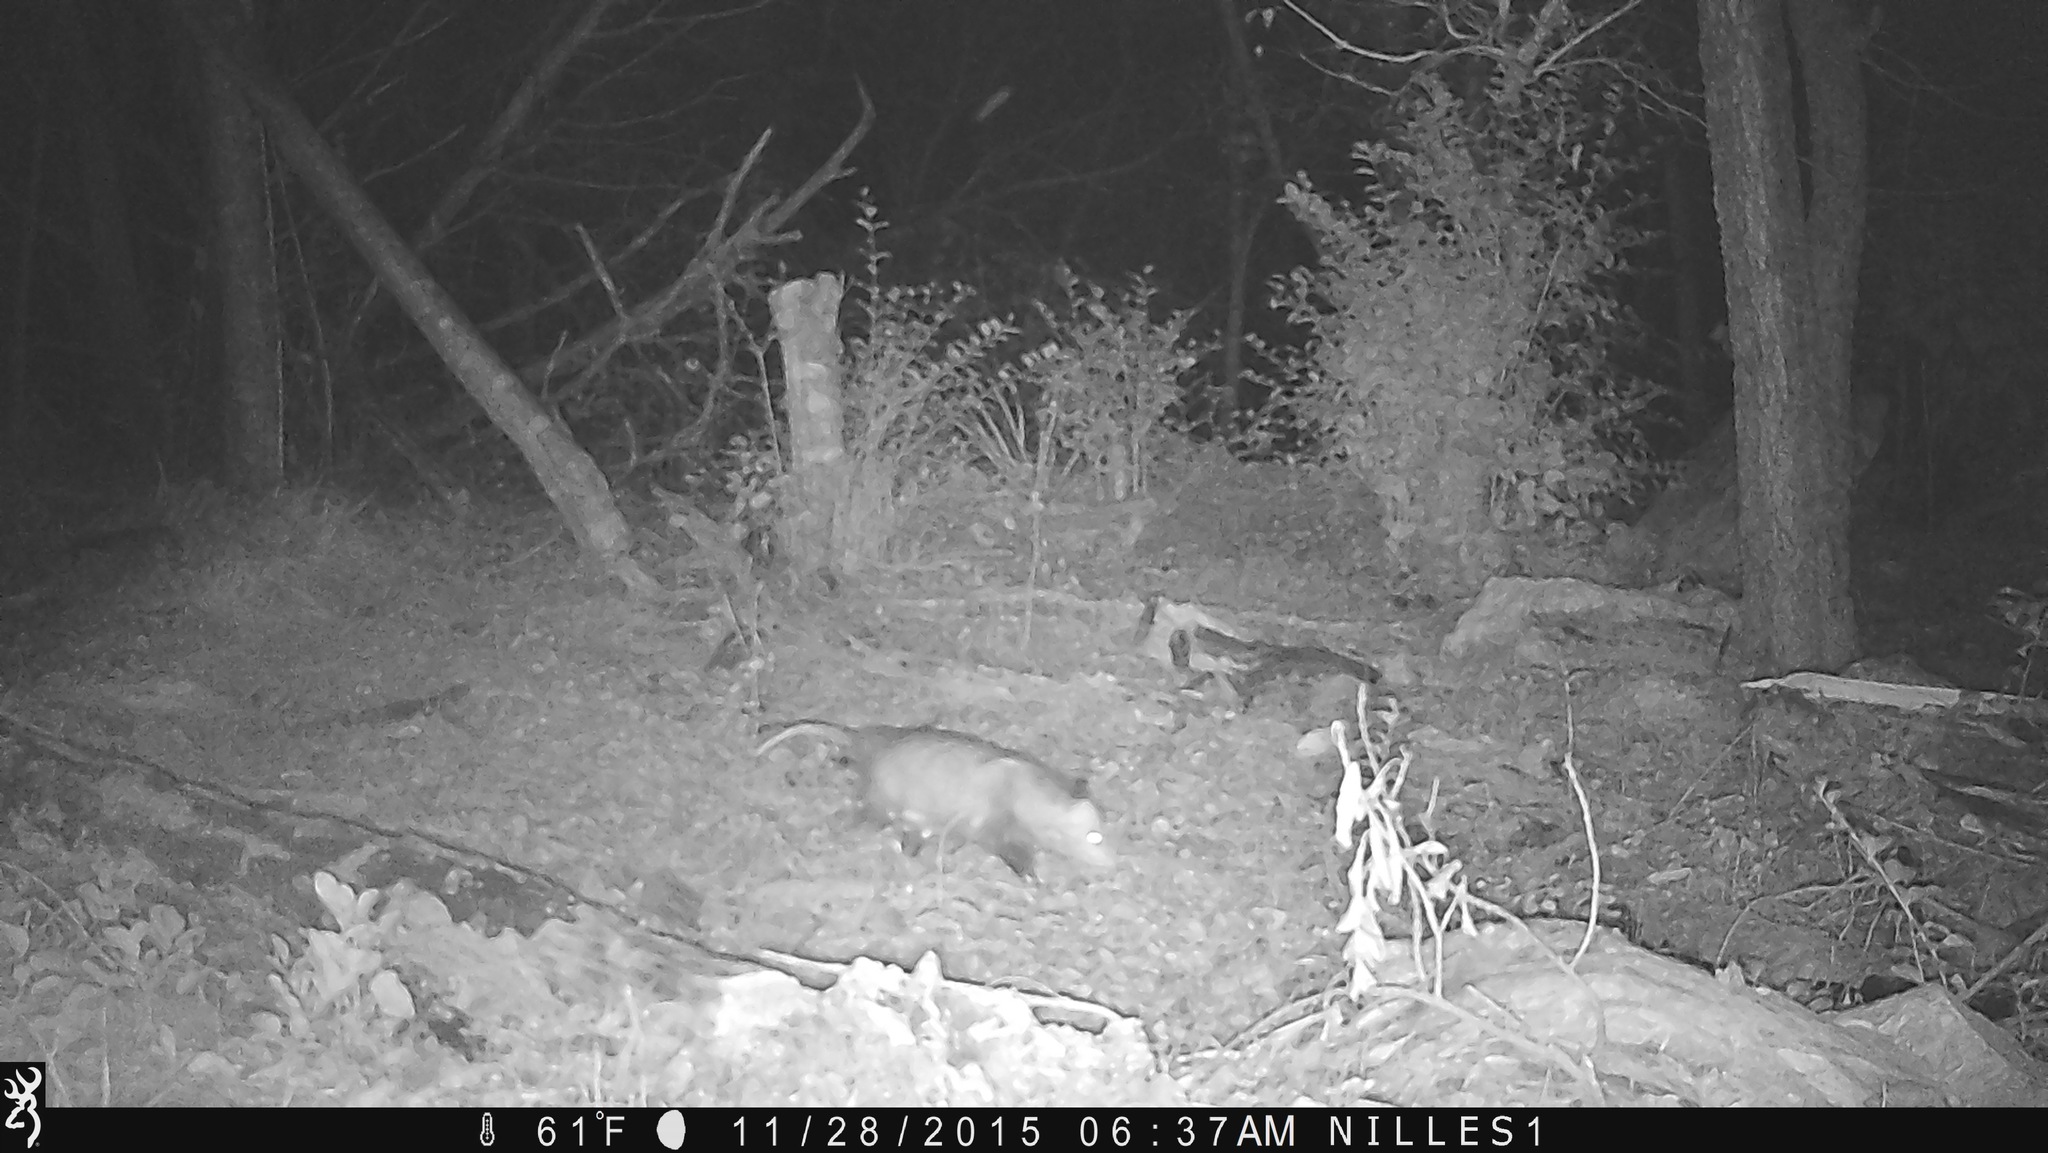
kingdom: Animalia
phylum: Chordata
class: Mammalia
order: Didelphimorphia
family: Didelphidae
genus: Didelphis
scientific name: Didelphis virginiana
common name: Virginia opossum
